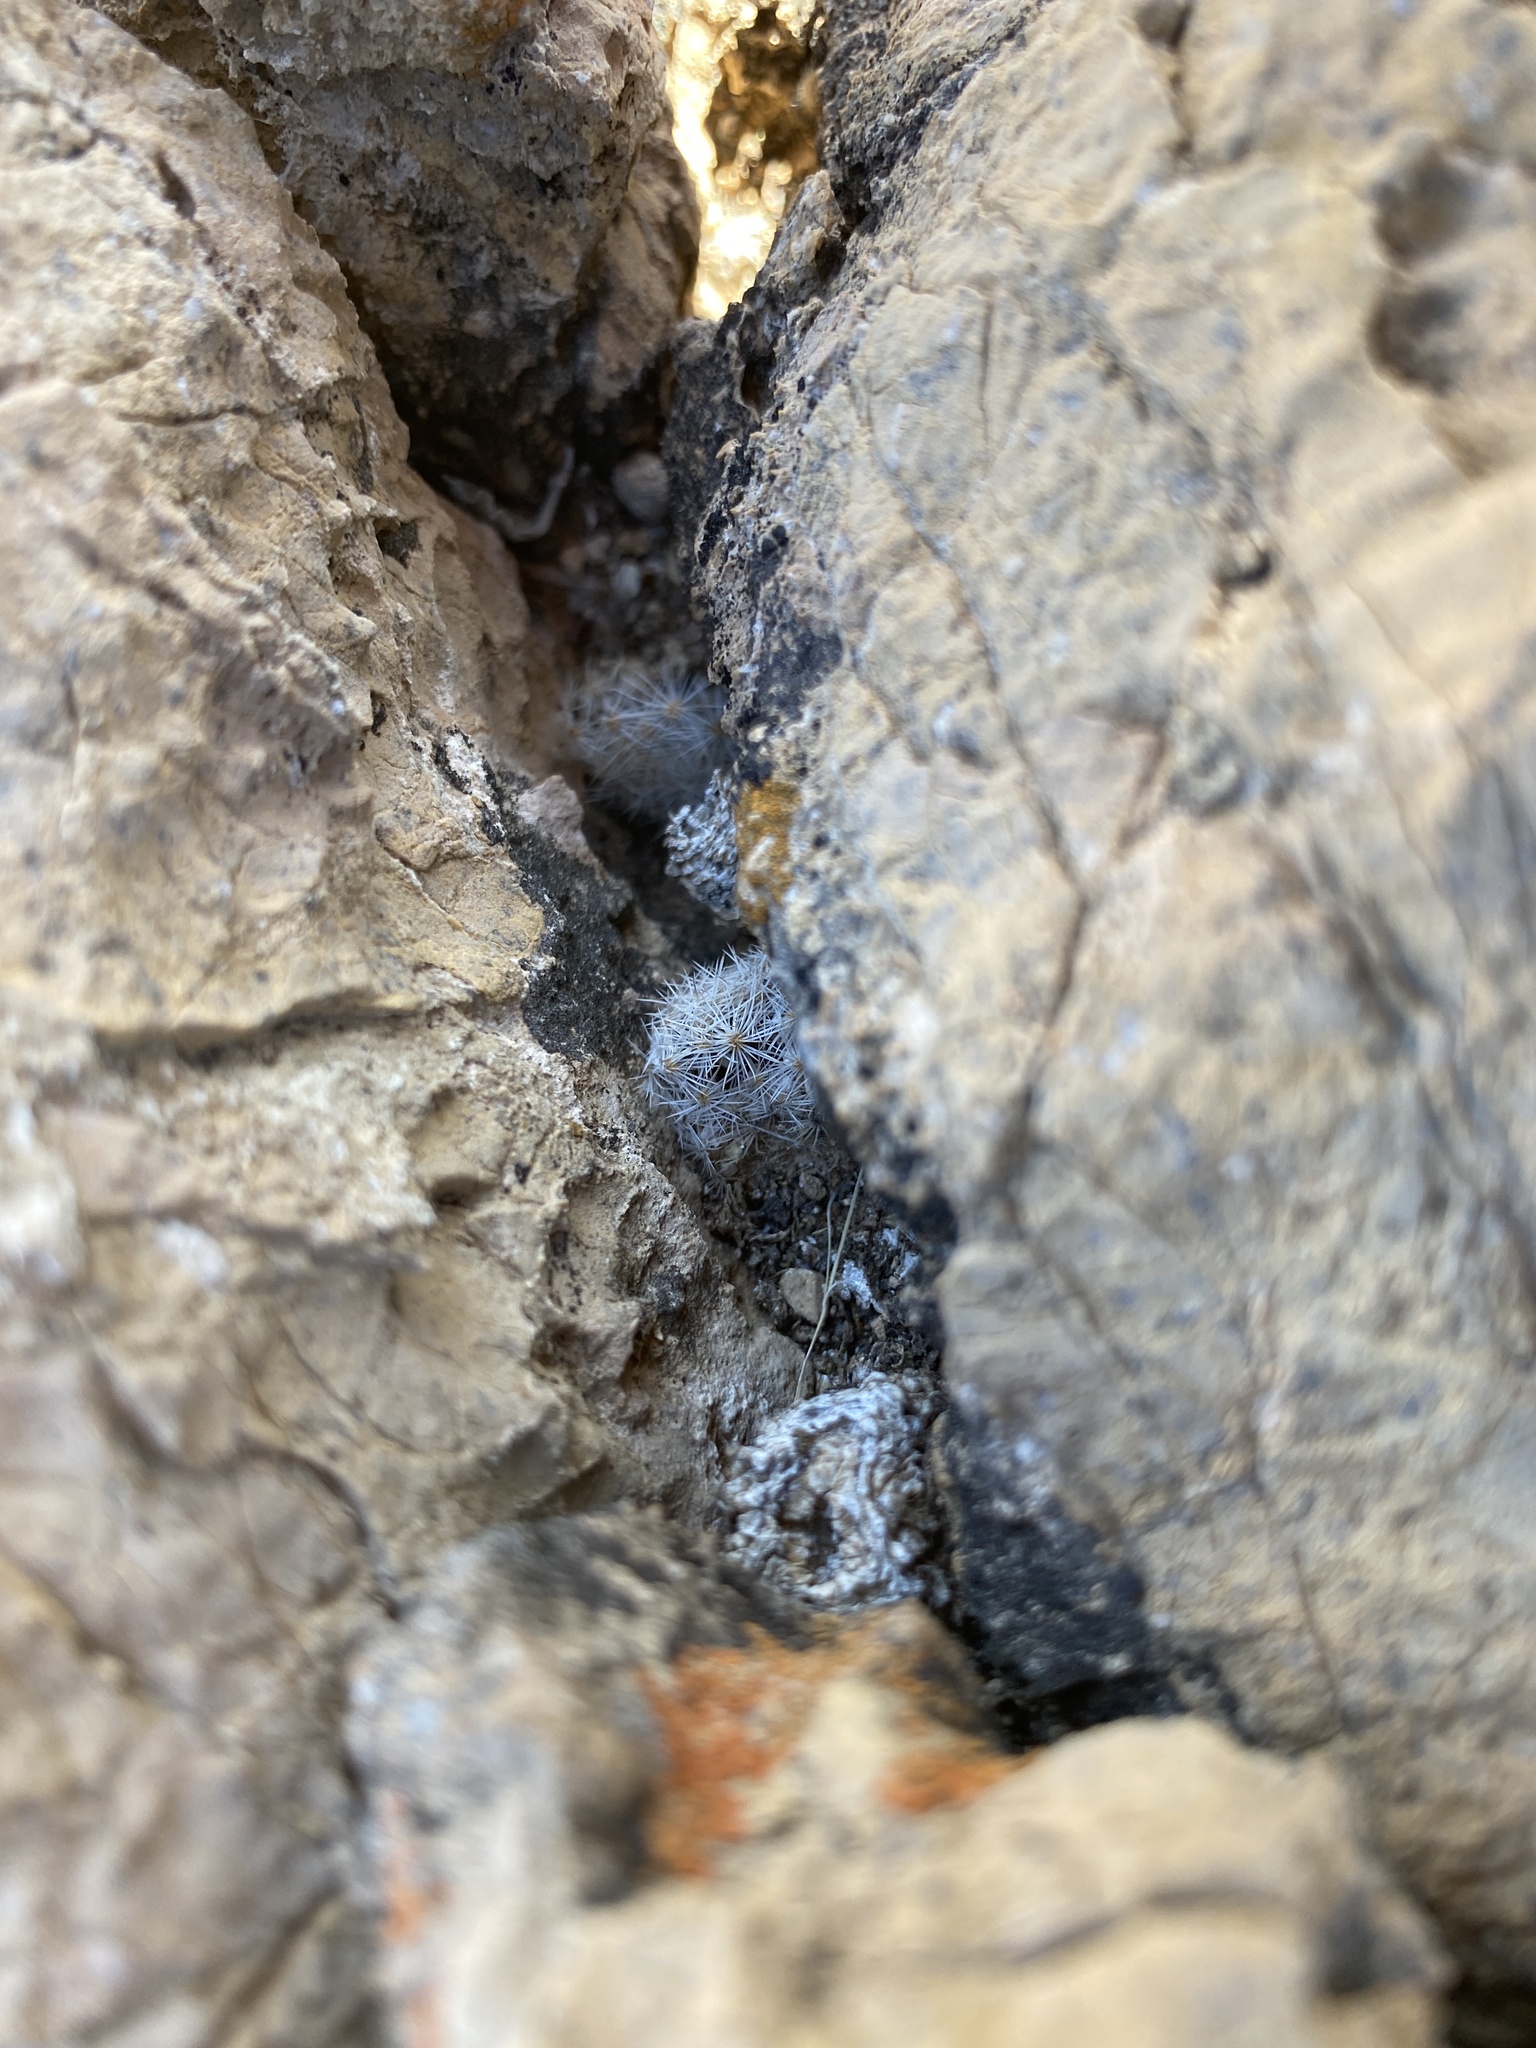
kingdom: Plantae
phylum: Tracheophyta
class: Magnoliopsida
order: Caryophyllales
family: Cactaceae
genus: Mammillaria
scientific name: Mammillaria lasiacantha
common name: Lace-spine nipple cactus
